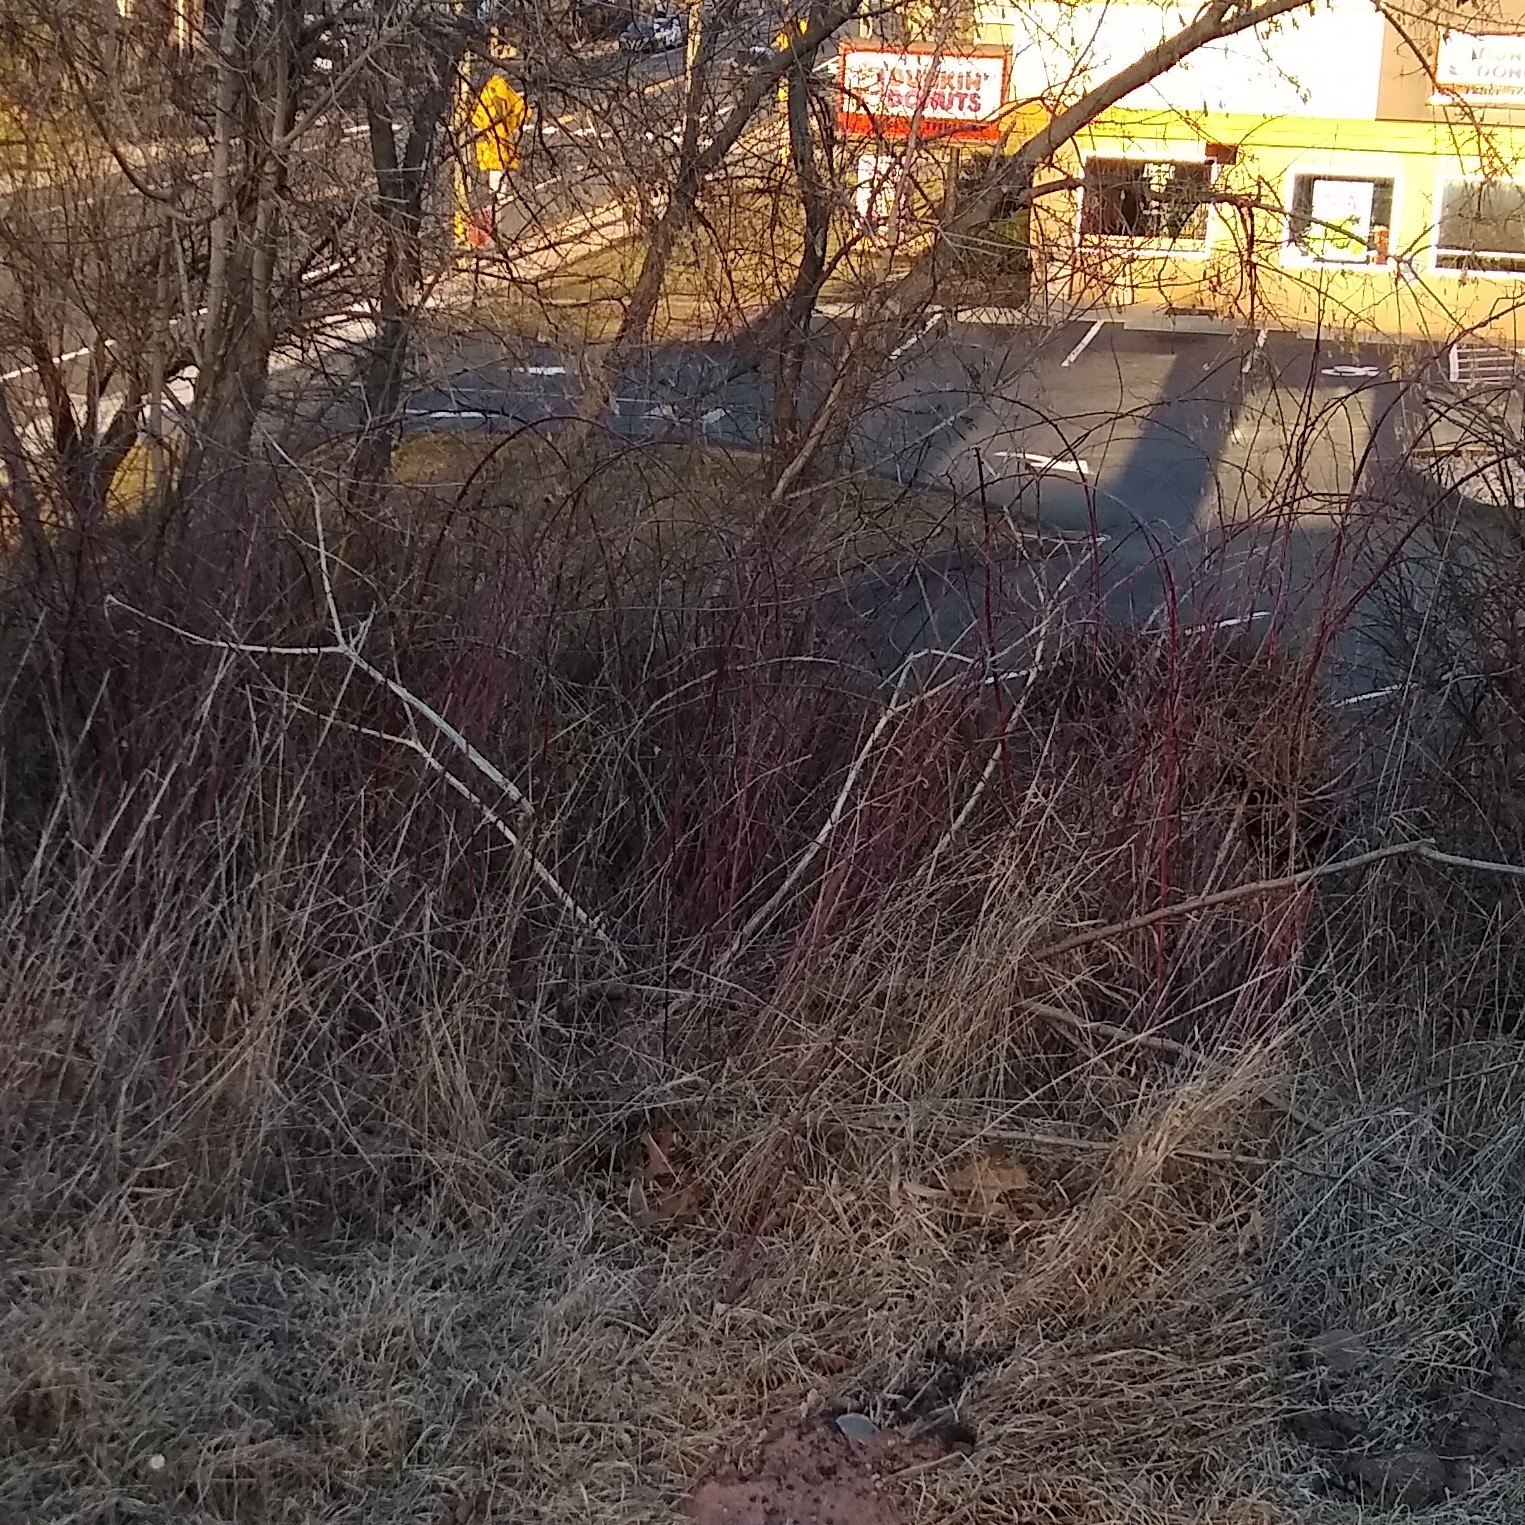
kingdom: Plantae
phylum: Tracheophyta
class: Magnoliopsida
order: Caryophyllales
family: Phytolaccaceae
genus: Phytolacca
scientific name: Phytolacca americana
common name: American pokeweed
